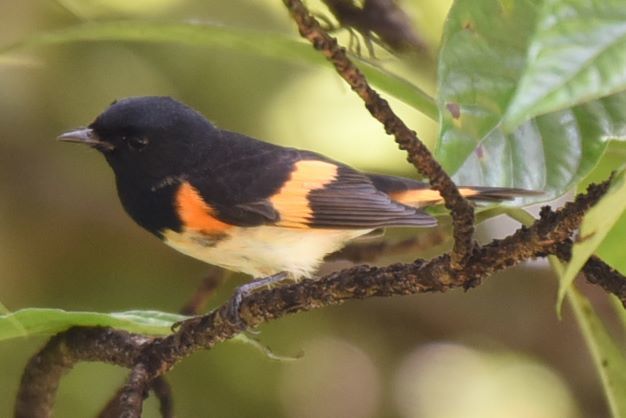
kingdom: Animalia
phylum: Chordata
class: Aves
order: Passeriformes
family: Parulidae
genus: Setophaga
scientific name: Setophaga ruticilla
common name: American redstart
